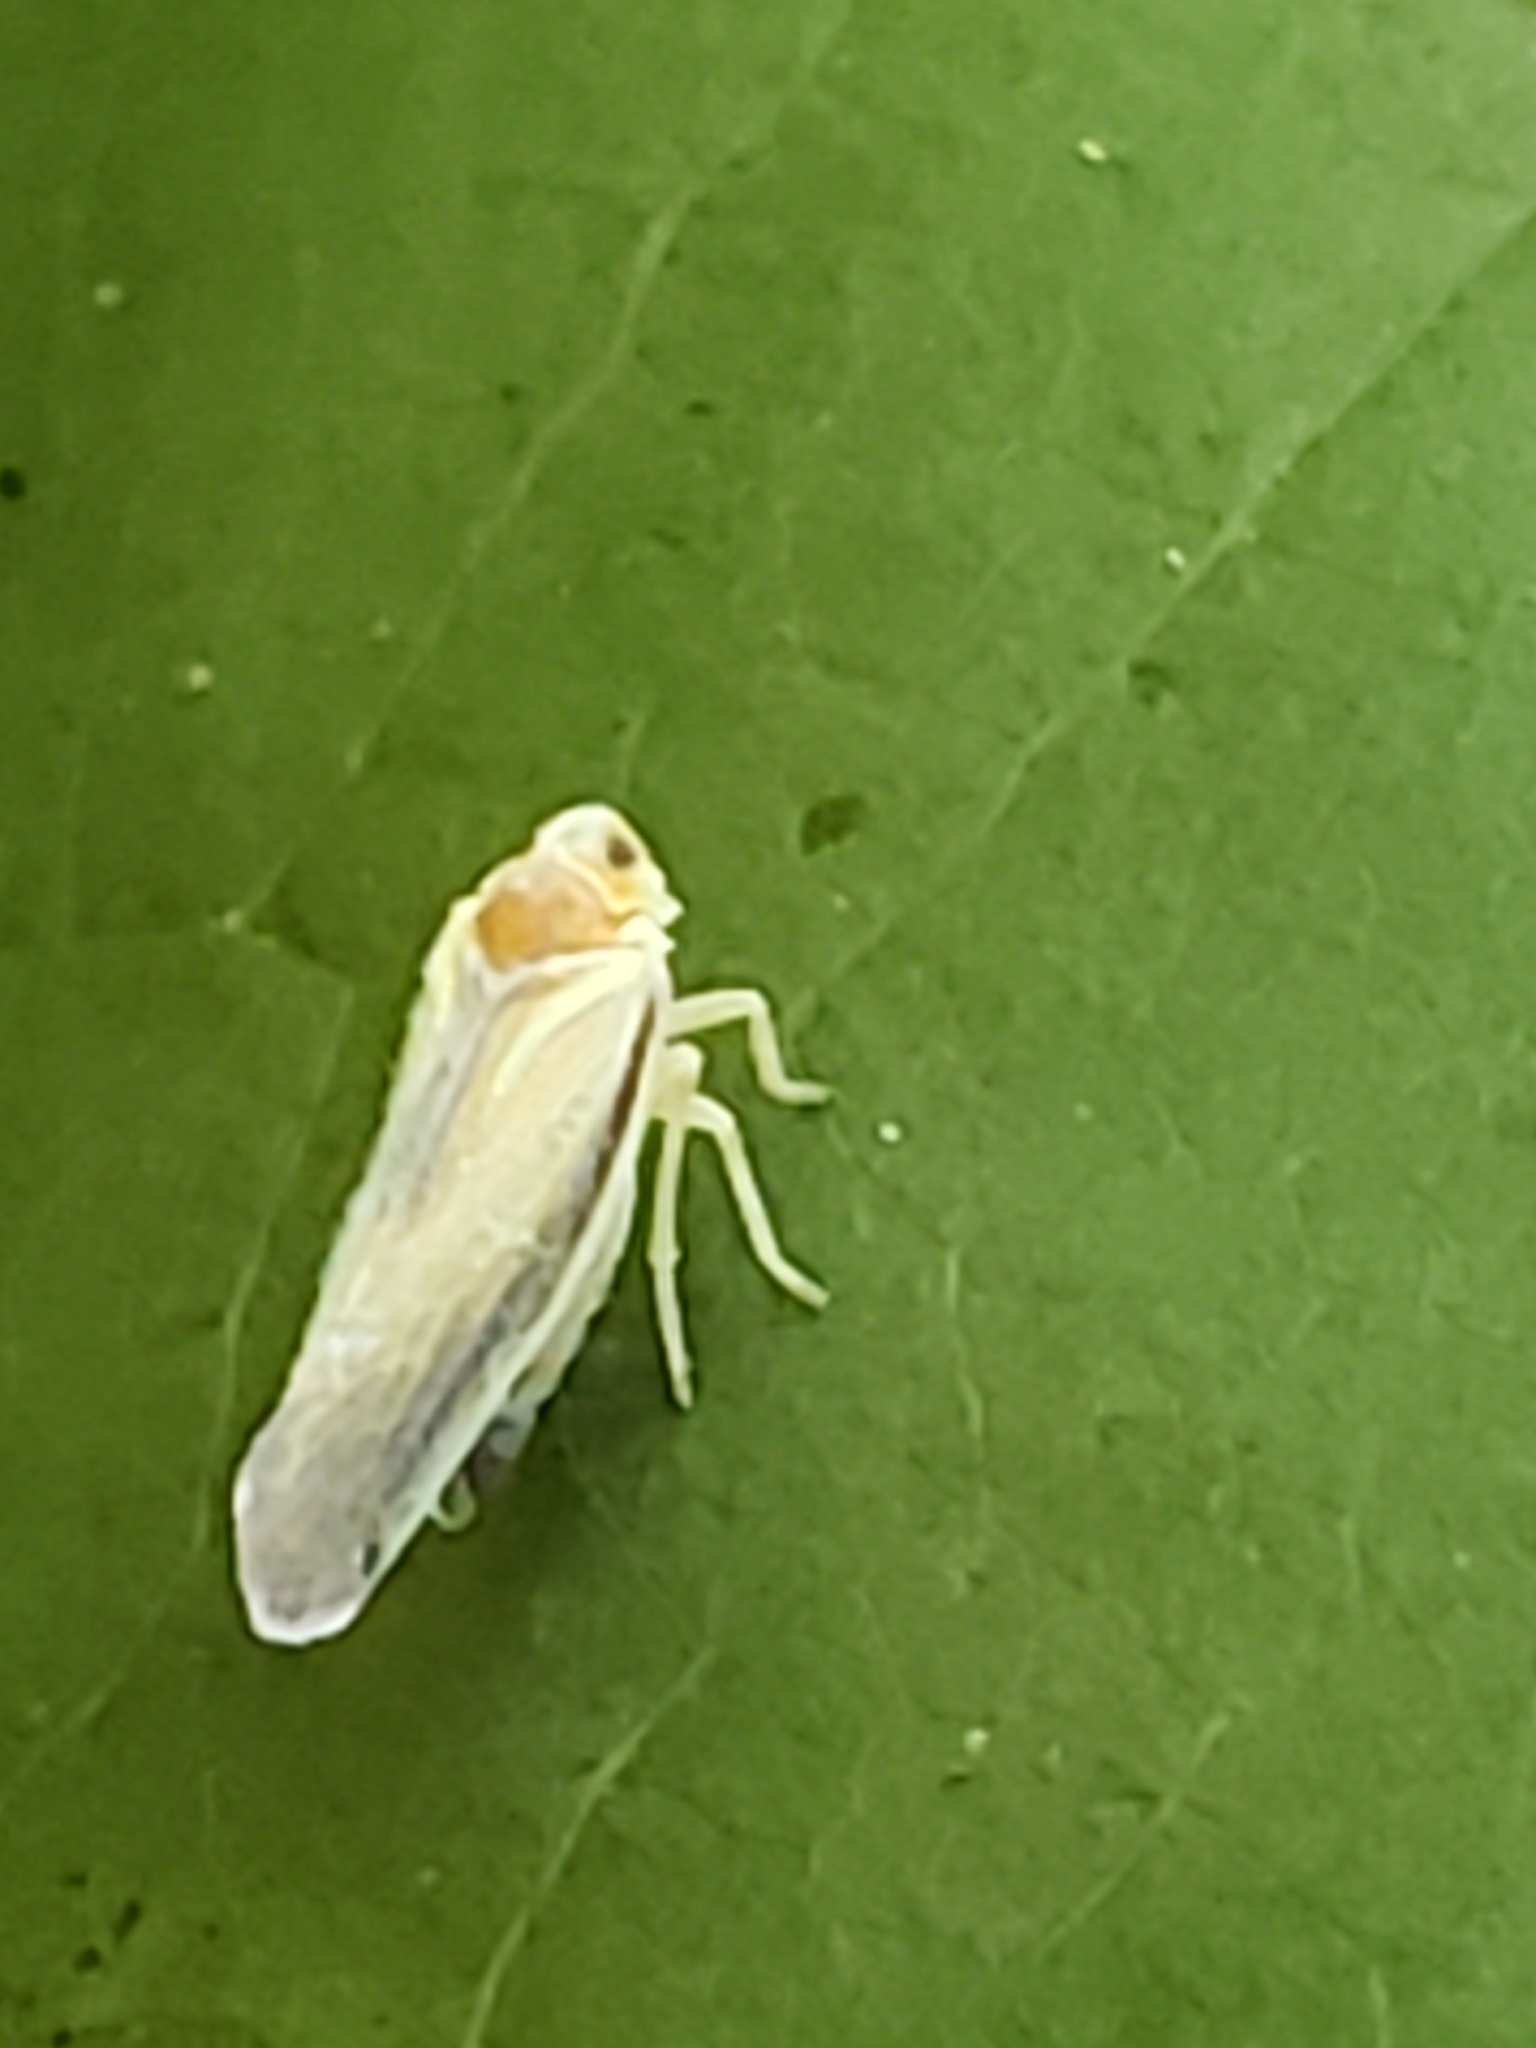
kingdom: Animalia
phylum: Arthropoda
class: Insecta
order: Hemiptera
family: Derbidae
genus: Omolicna
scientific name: Omolicna uhleri
